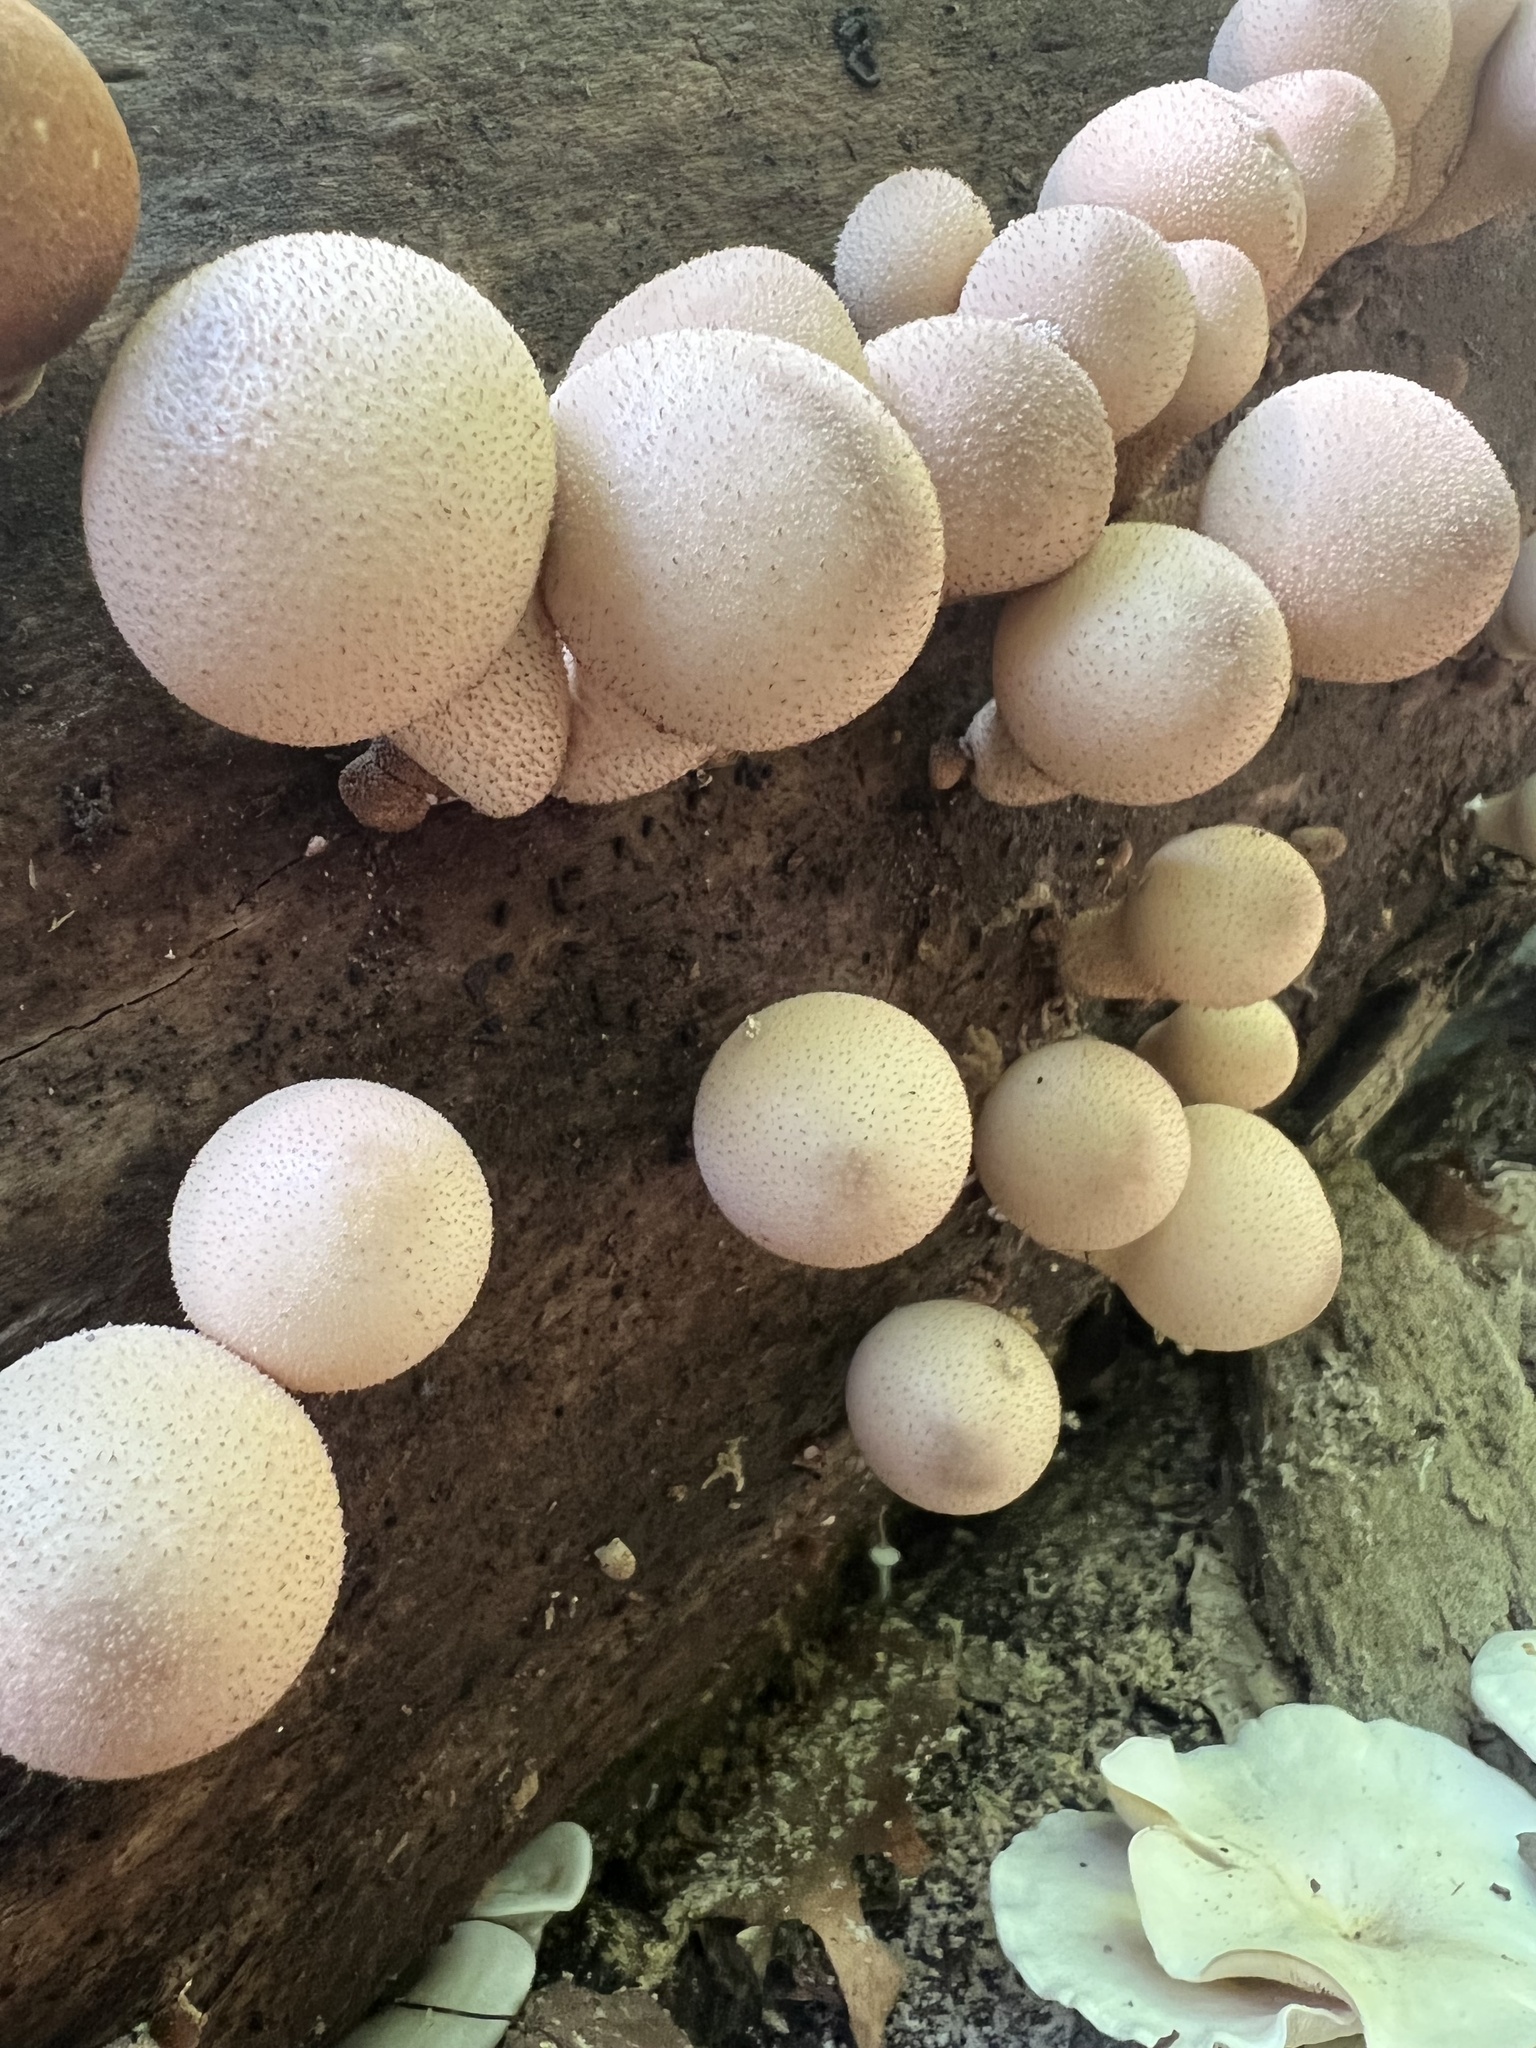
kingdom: Fungi
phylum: Basidiomycota
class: Agaricomycetes
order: Agaricales
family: Lycoperdaceae
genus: Apioperdon
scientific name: Apioperdon pyriforme
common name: Pear-shaped puffball
